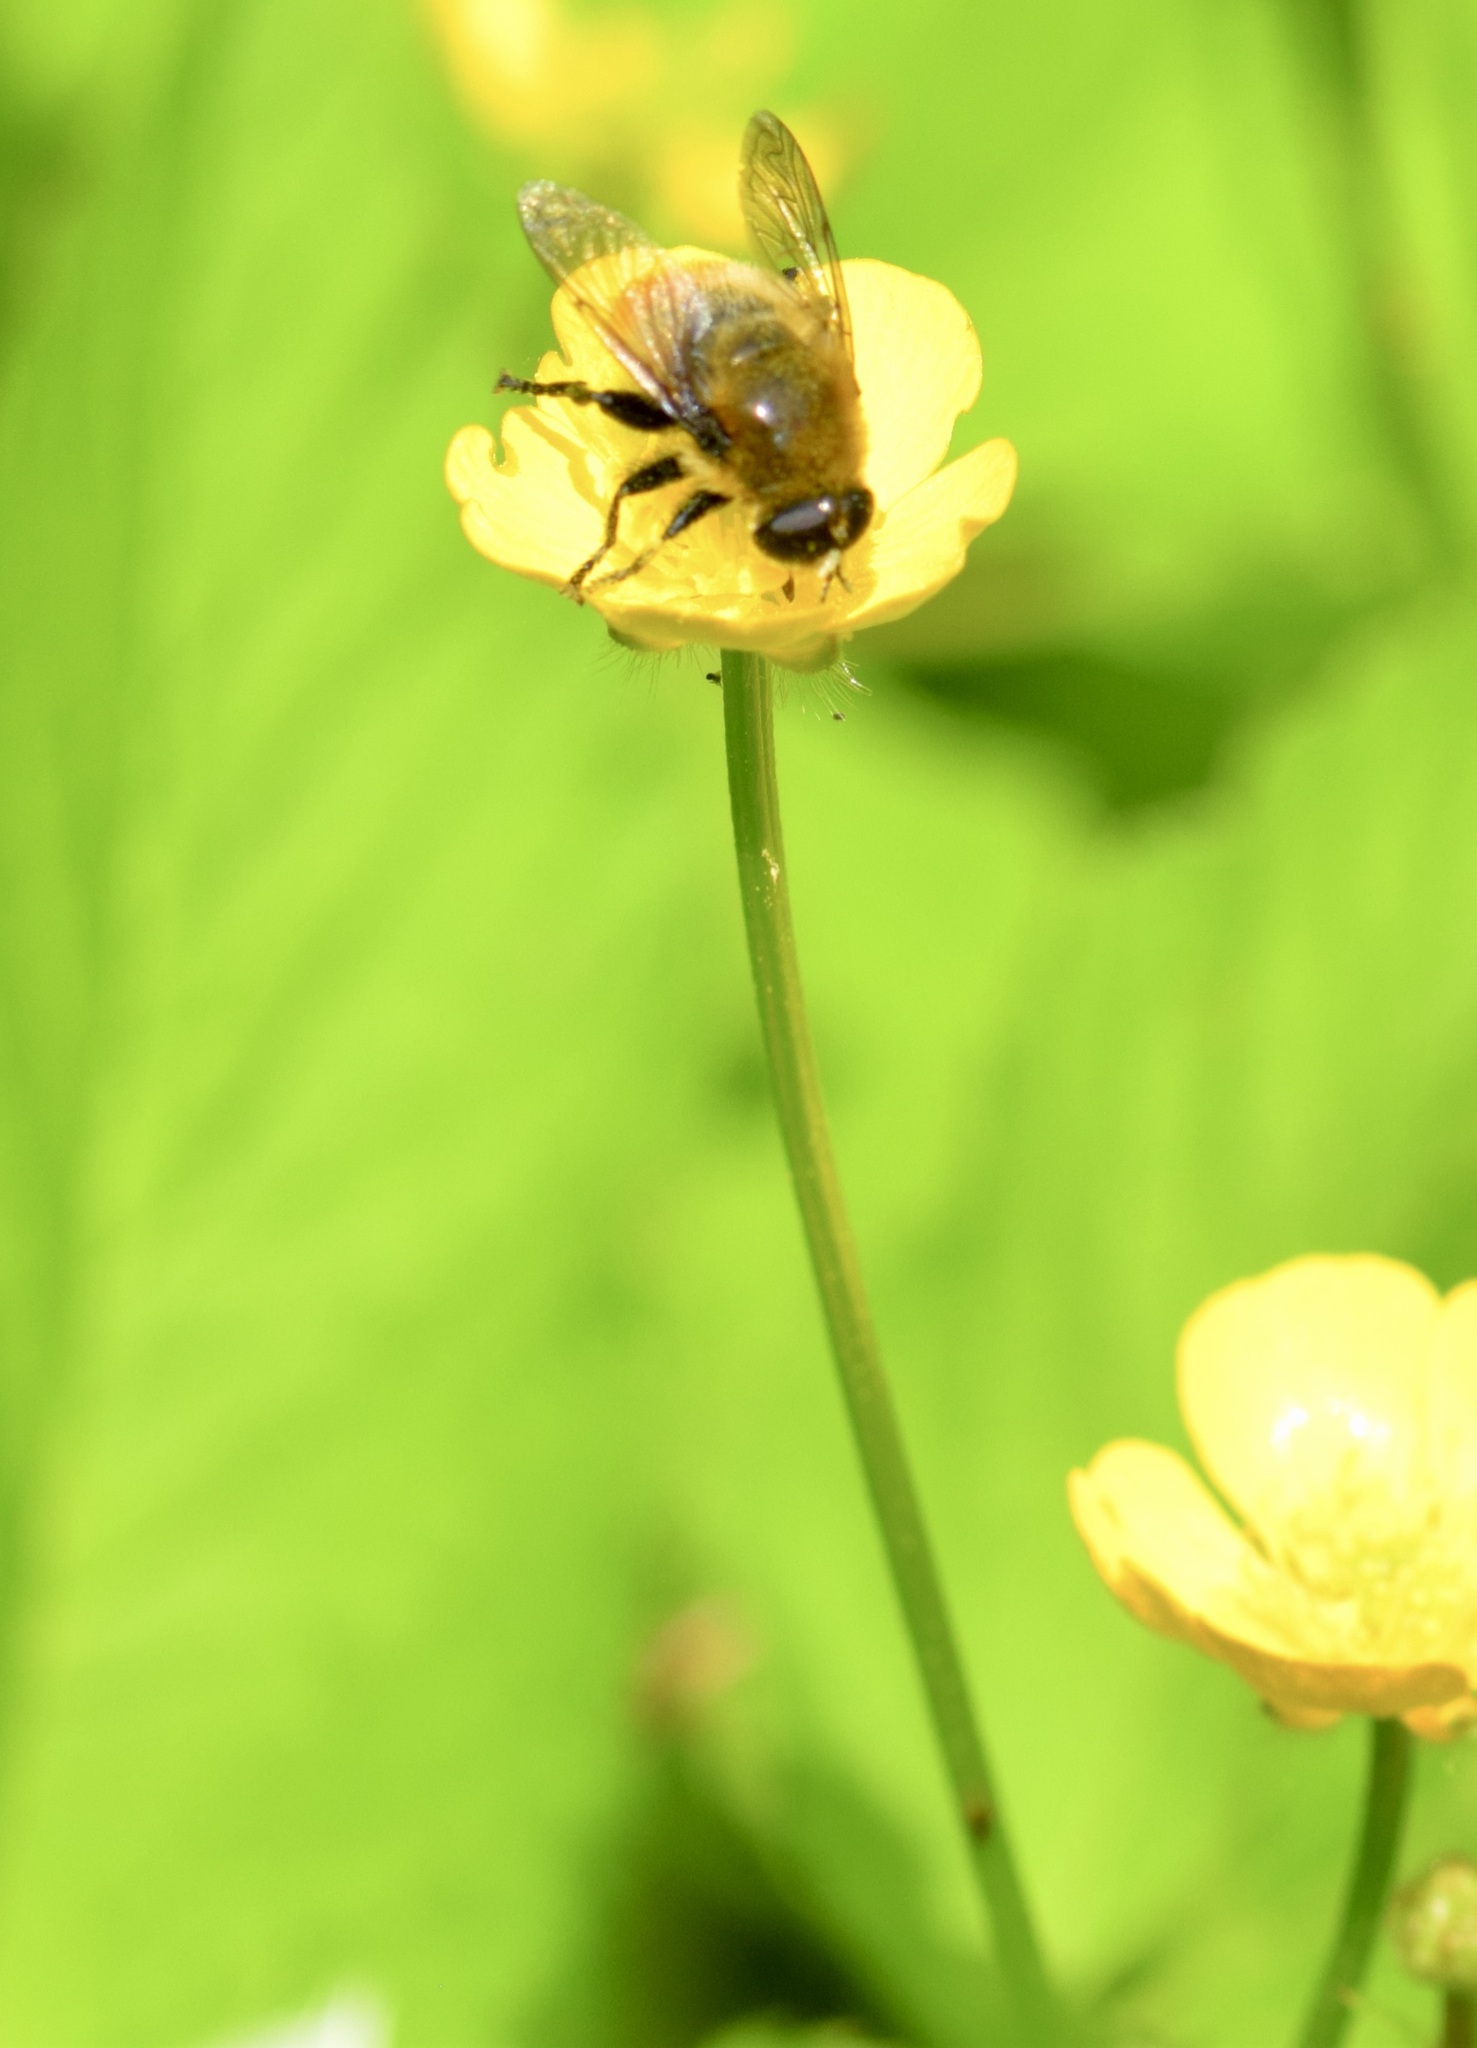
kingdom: Animalia
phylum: Arthropoda
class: Insecta
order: Diptera
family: Syrphidae
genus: Merodon
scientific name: Merodon equestris
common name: Greater bulb-fly
